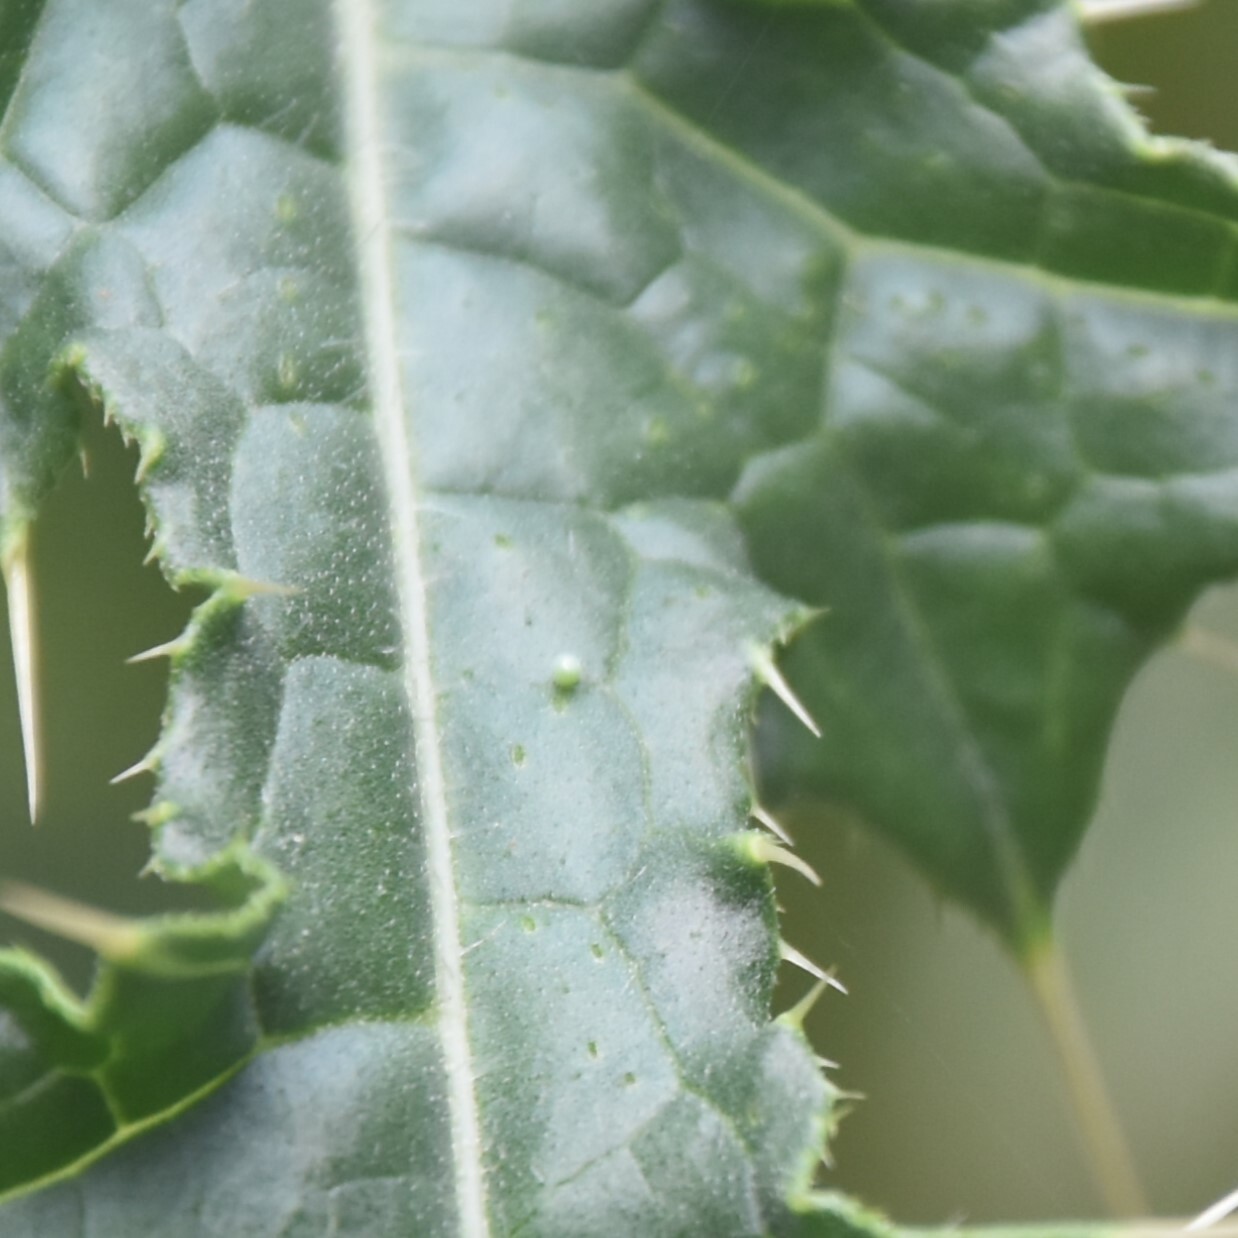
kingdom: Animalia
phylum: Arthropoda
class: Insecta
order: Lepidoptera
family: Nymphalidae
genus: Vanessa
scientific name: Vanessa cardui
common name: Painted lady
